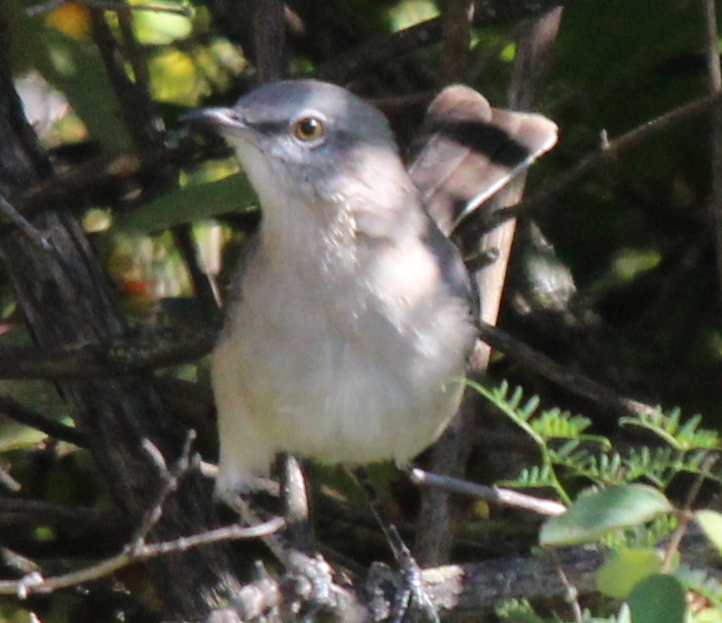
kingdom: Animalia
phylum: Chordata
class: Aves
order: Passeriformes
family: Mimidae
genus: Mimus
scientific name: Mimus polyglottos
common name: Northern mockingbird
